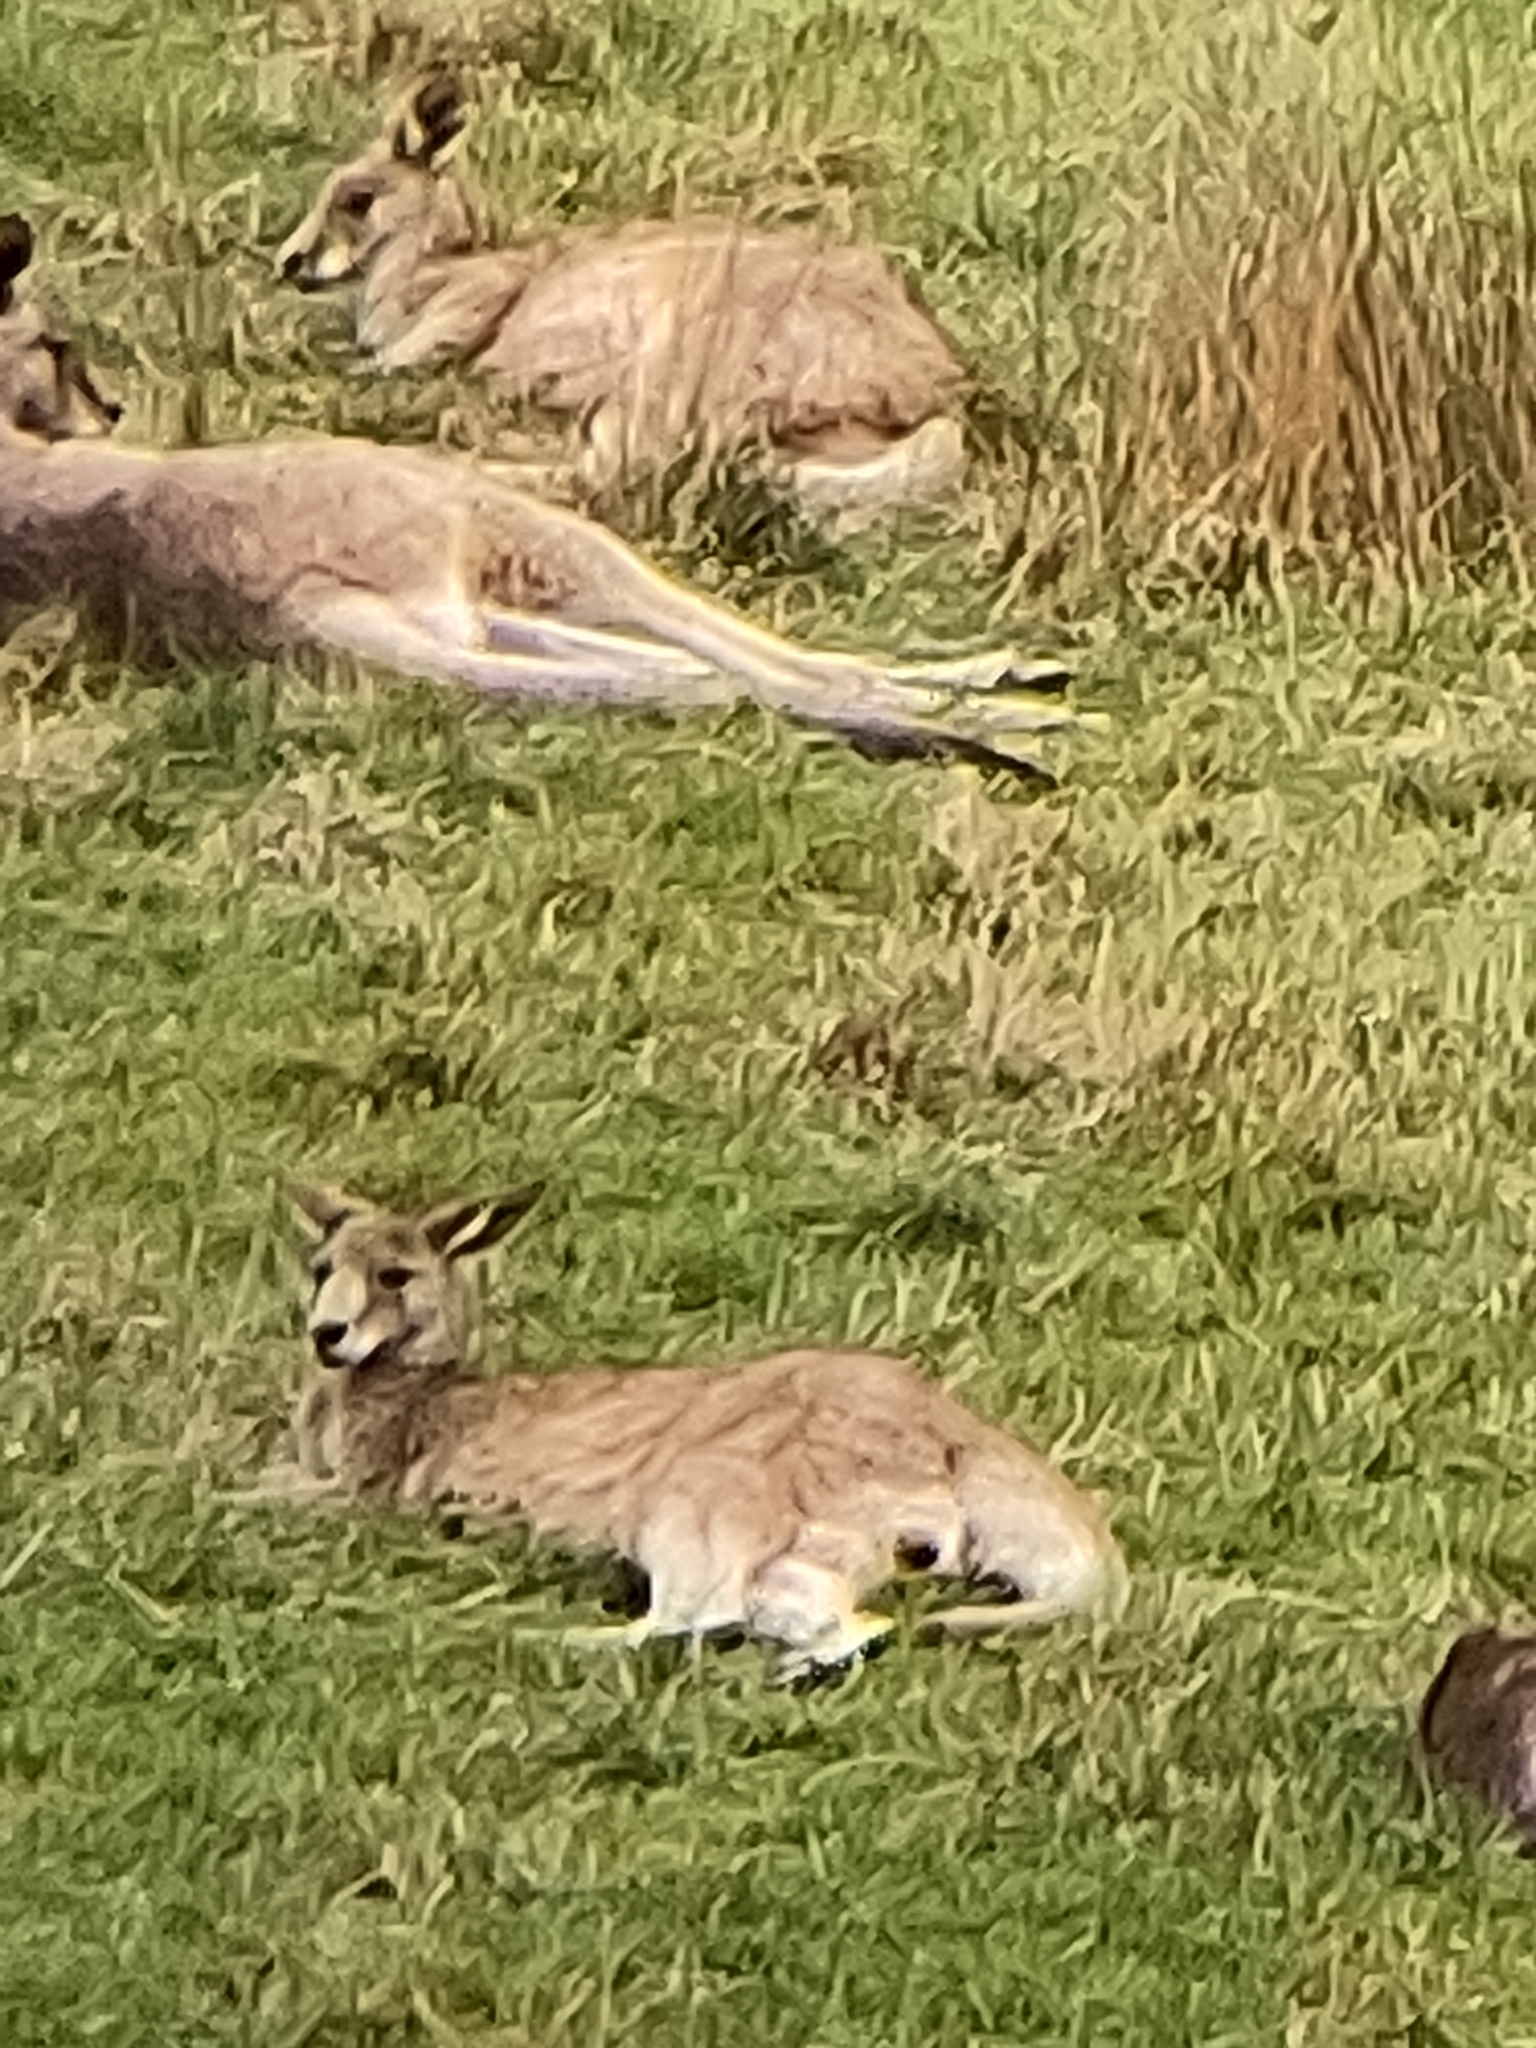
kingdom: Animalia
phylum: Chordata
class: Mammalia
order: Diprotodontia
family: Macropodidae
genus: Macropus
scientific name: Macropus giganteus
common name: Eastern grey kangaroo
